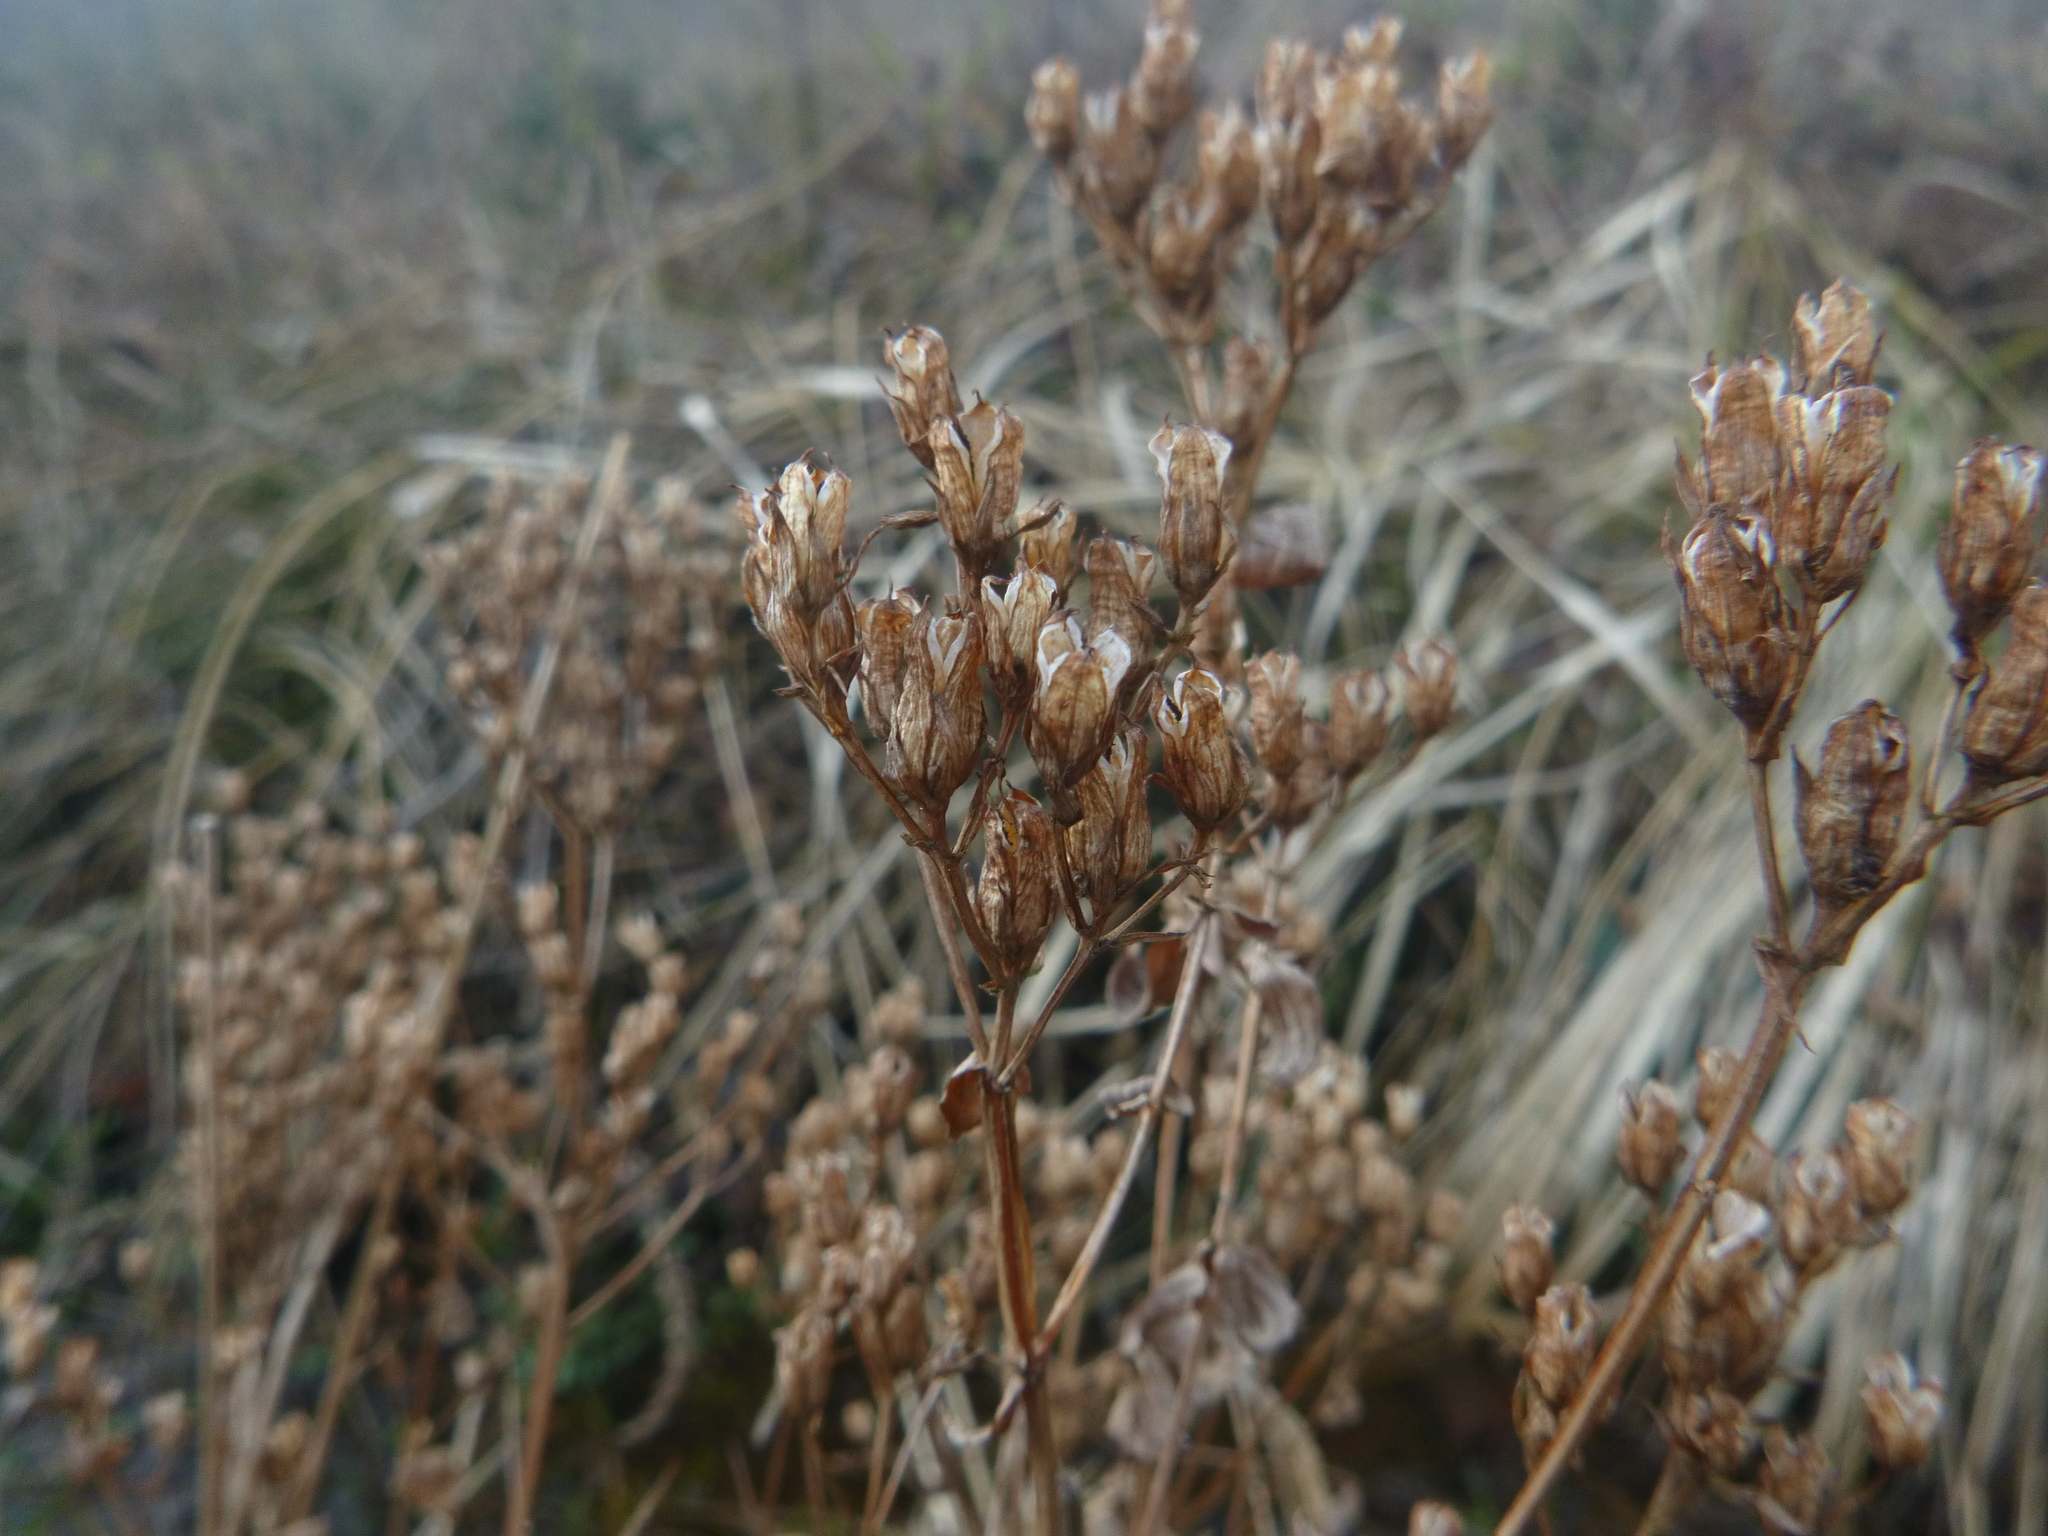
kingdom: Plantae
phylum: Tracheophyta
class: Magnoliopsida
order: Malpighiales
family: Hypericaceae
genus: Hypericum
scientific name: Hypericum tetrapterum
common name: Square-stalked st. john's-wort
